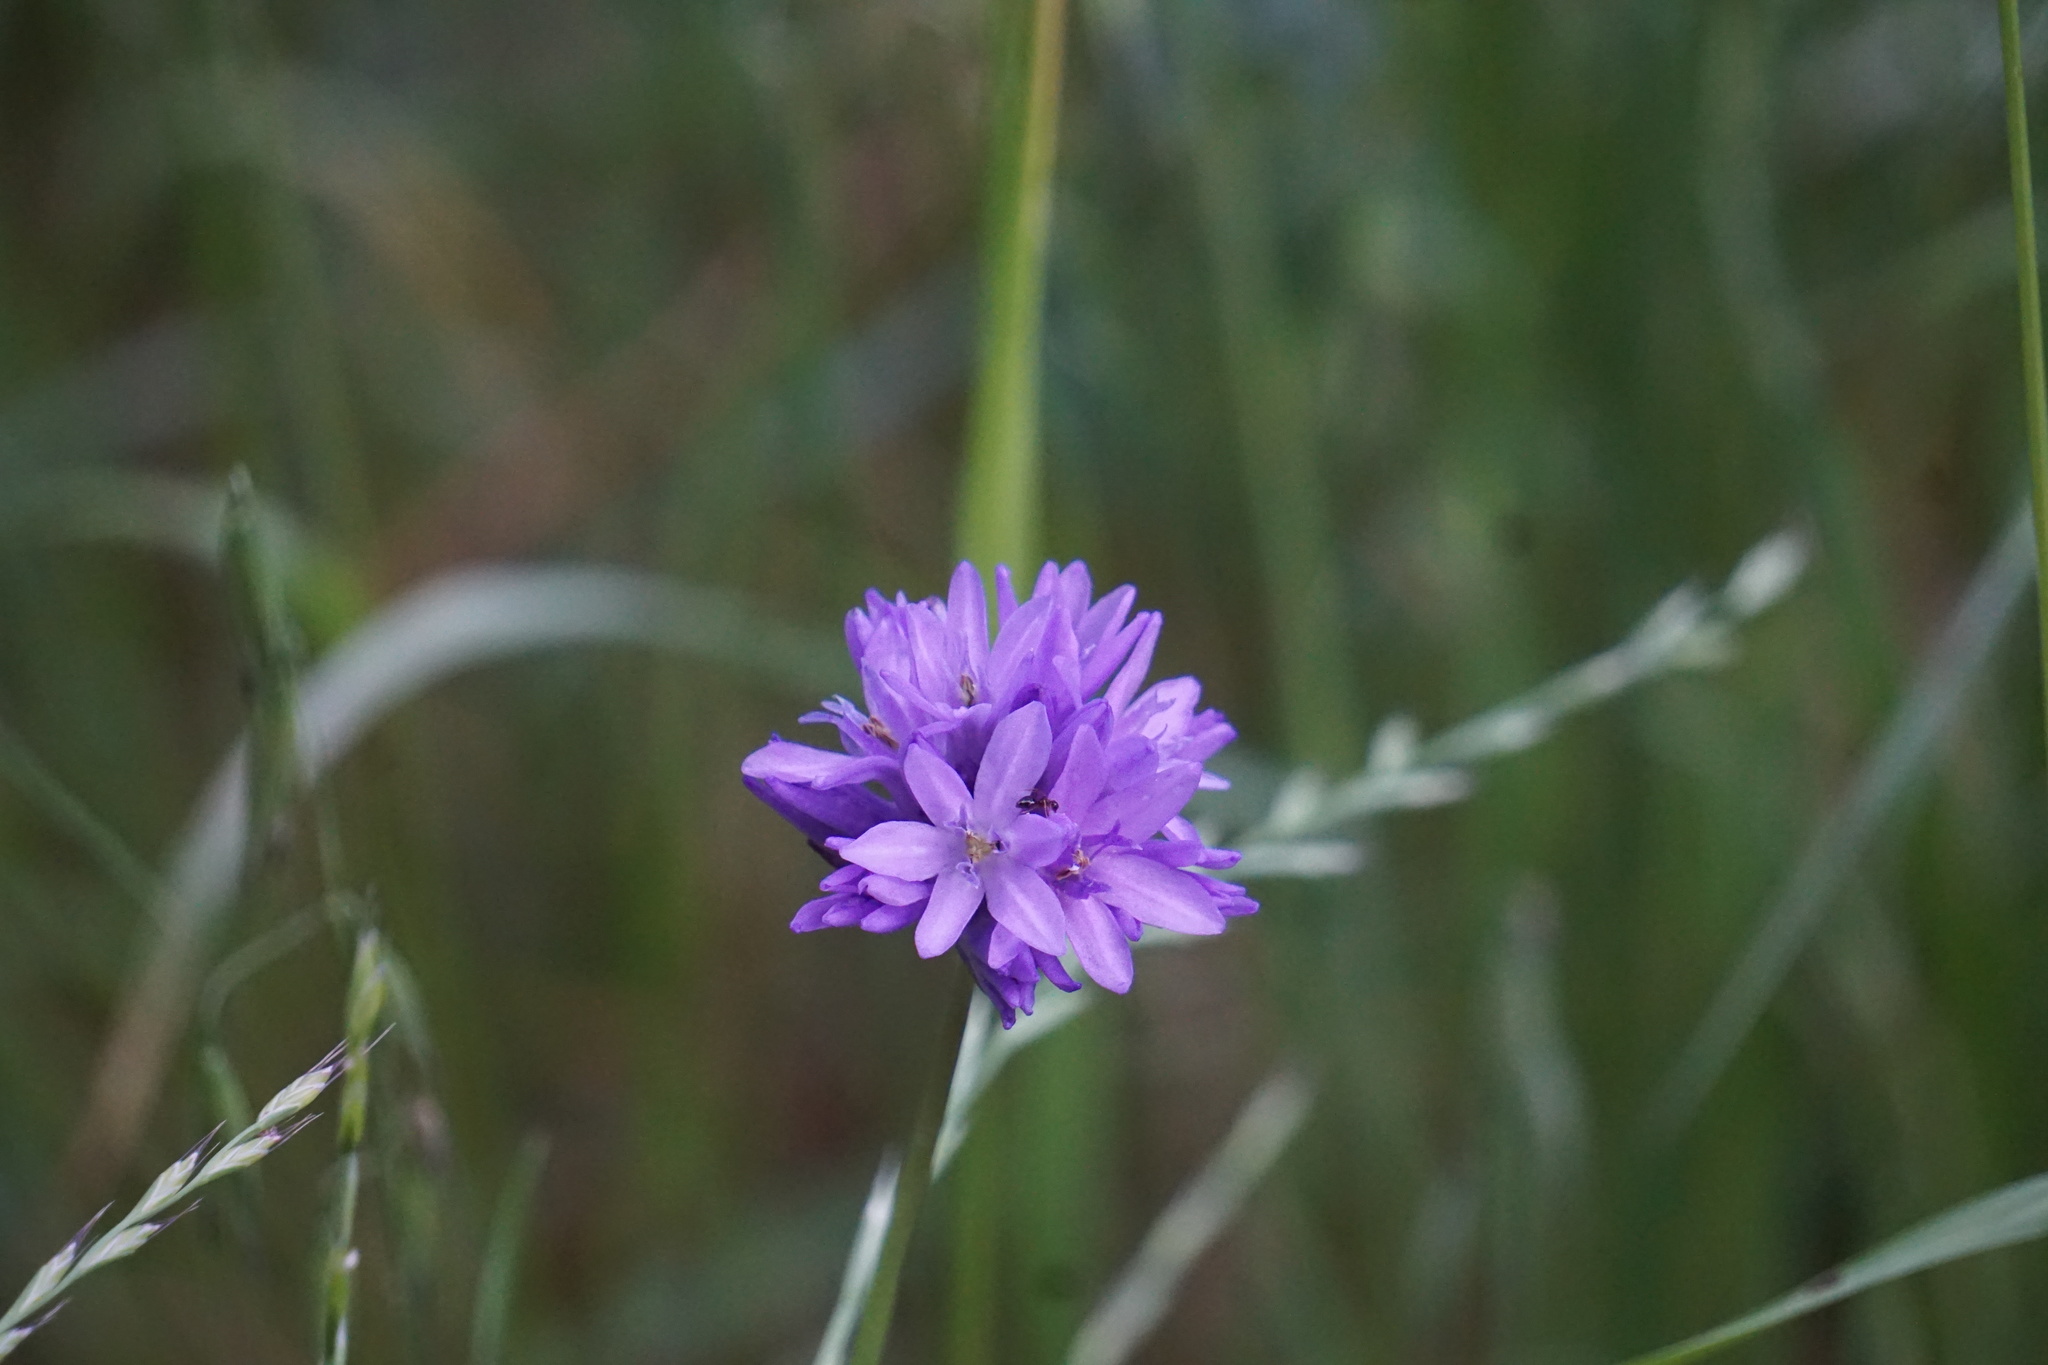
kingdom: Plantae
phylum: Tracheophyta
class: Liliopsida
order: Asparagales
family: Asparagaceae
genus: Dichelostemma
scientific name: Dichelostemma congestum
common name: Fork-tooth ookow
